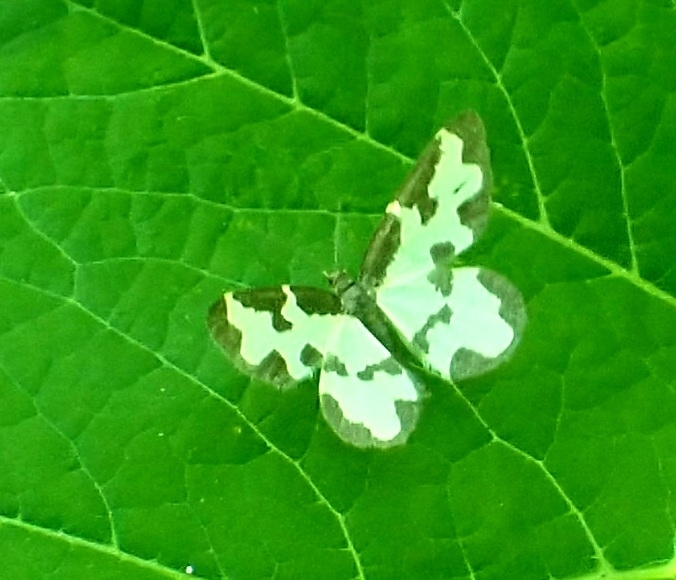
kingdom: Animalia
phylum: Arthropoda
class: Insecta
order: Lepidoptera
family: Geometridae
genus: Lomaspilis
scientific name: Lomaspilis marginata
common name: Clouded border
